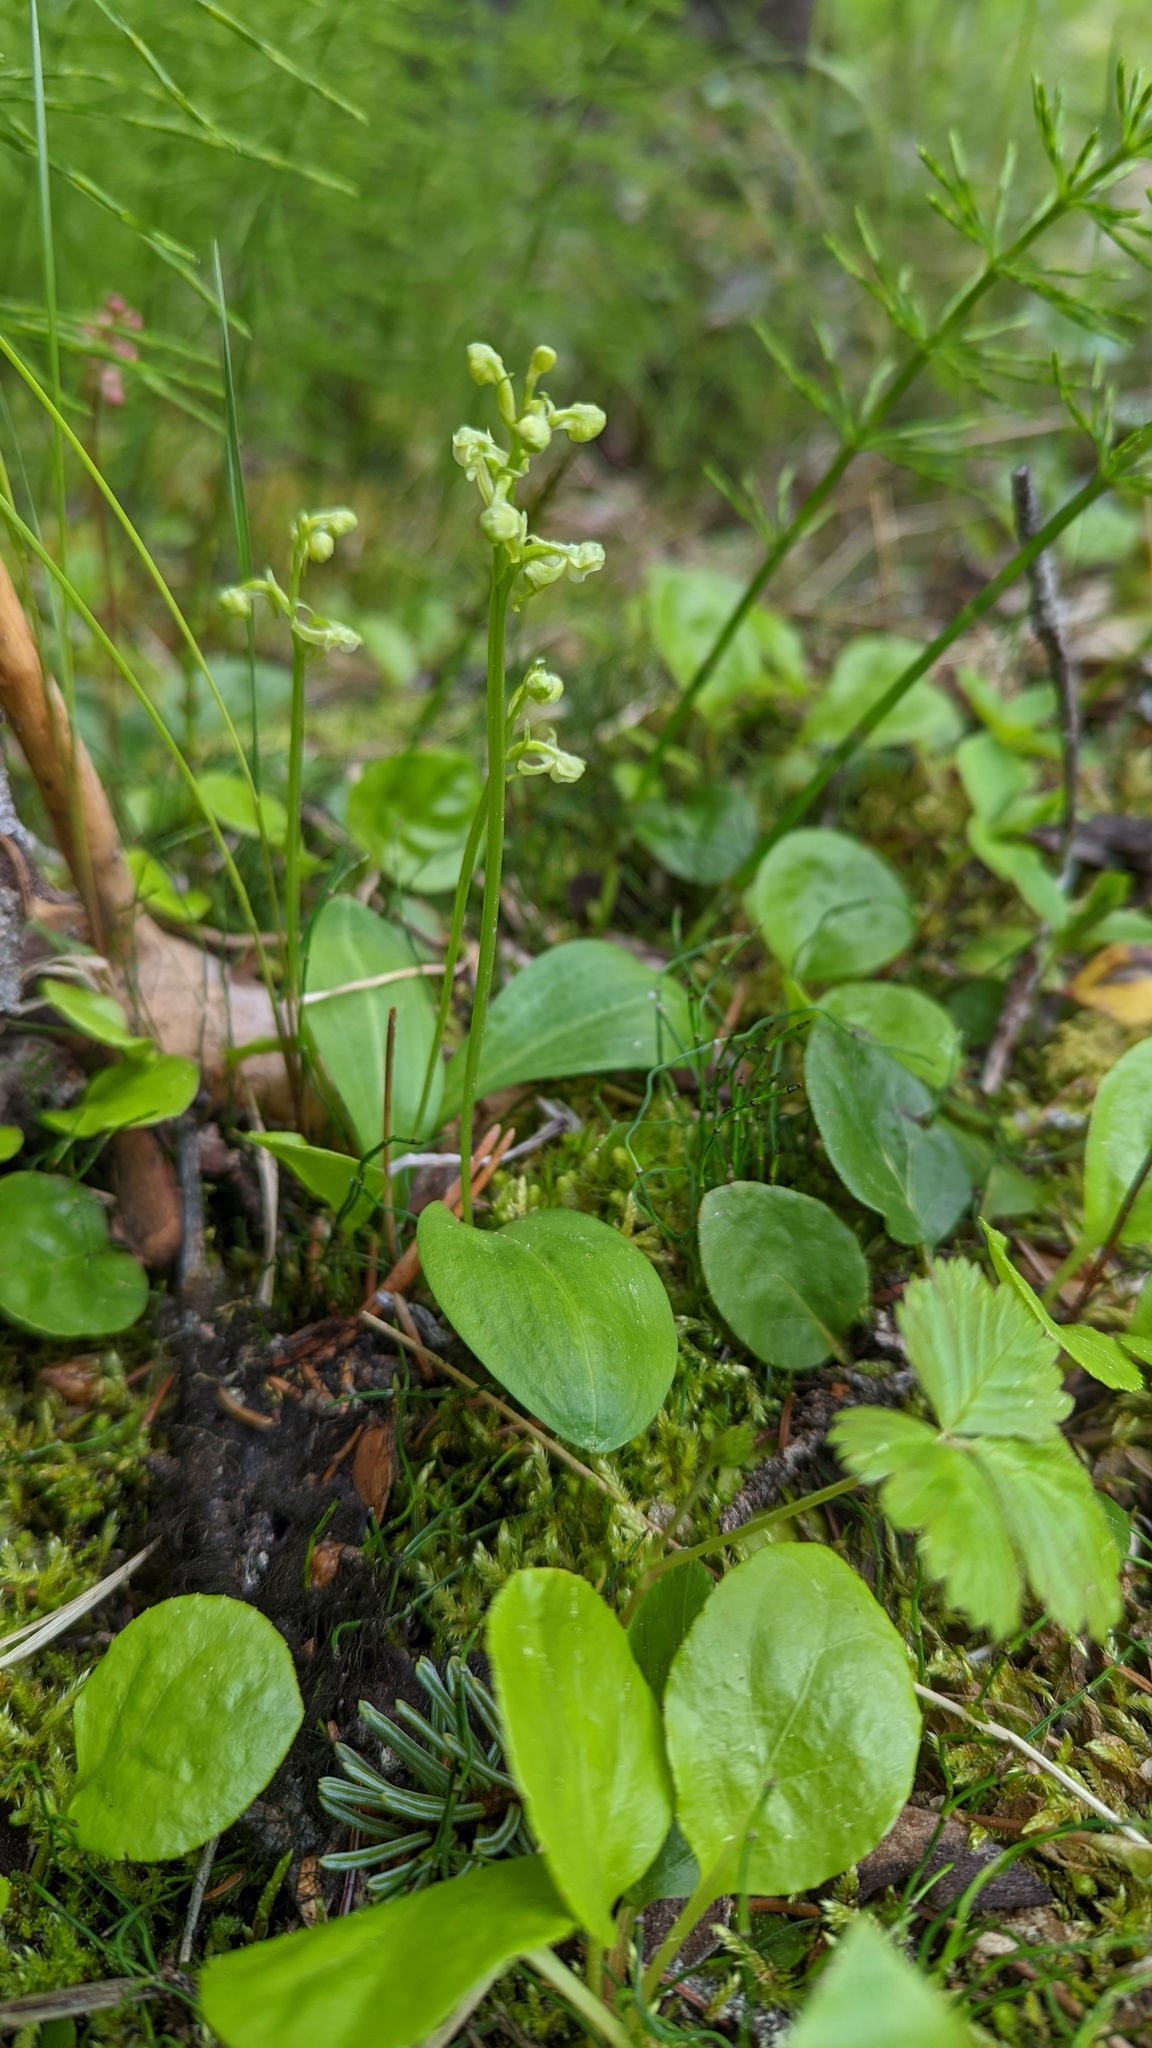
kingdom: Plantae
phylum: Tracheophyta
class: Liliopsida
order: Asparagales
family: Orchidaceae
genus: Platanthera
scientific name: Platanthera obtusata
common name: Blunt bog orchid
